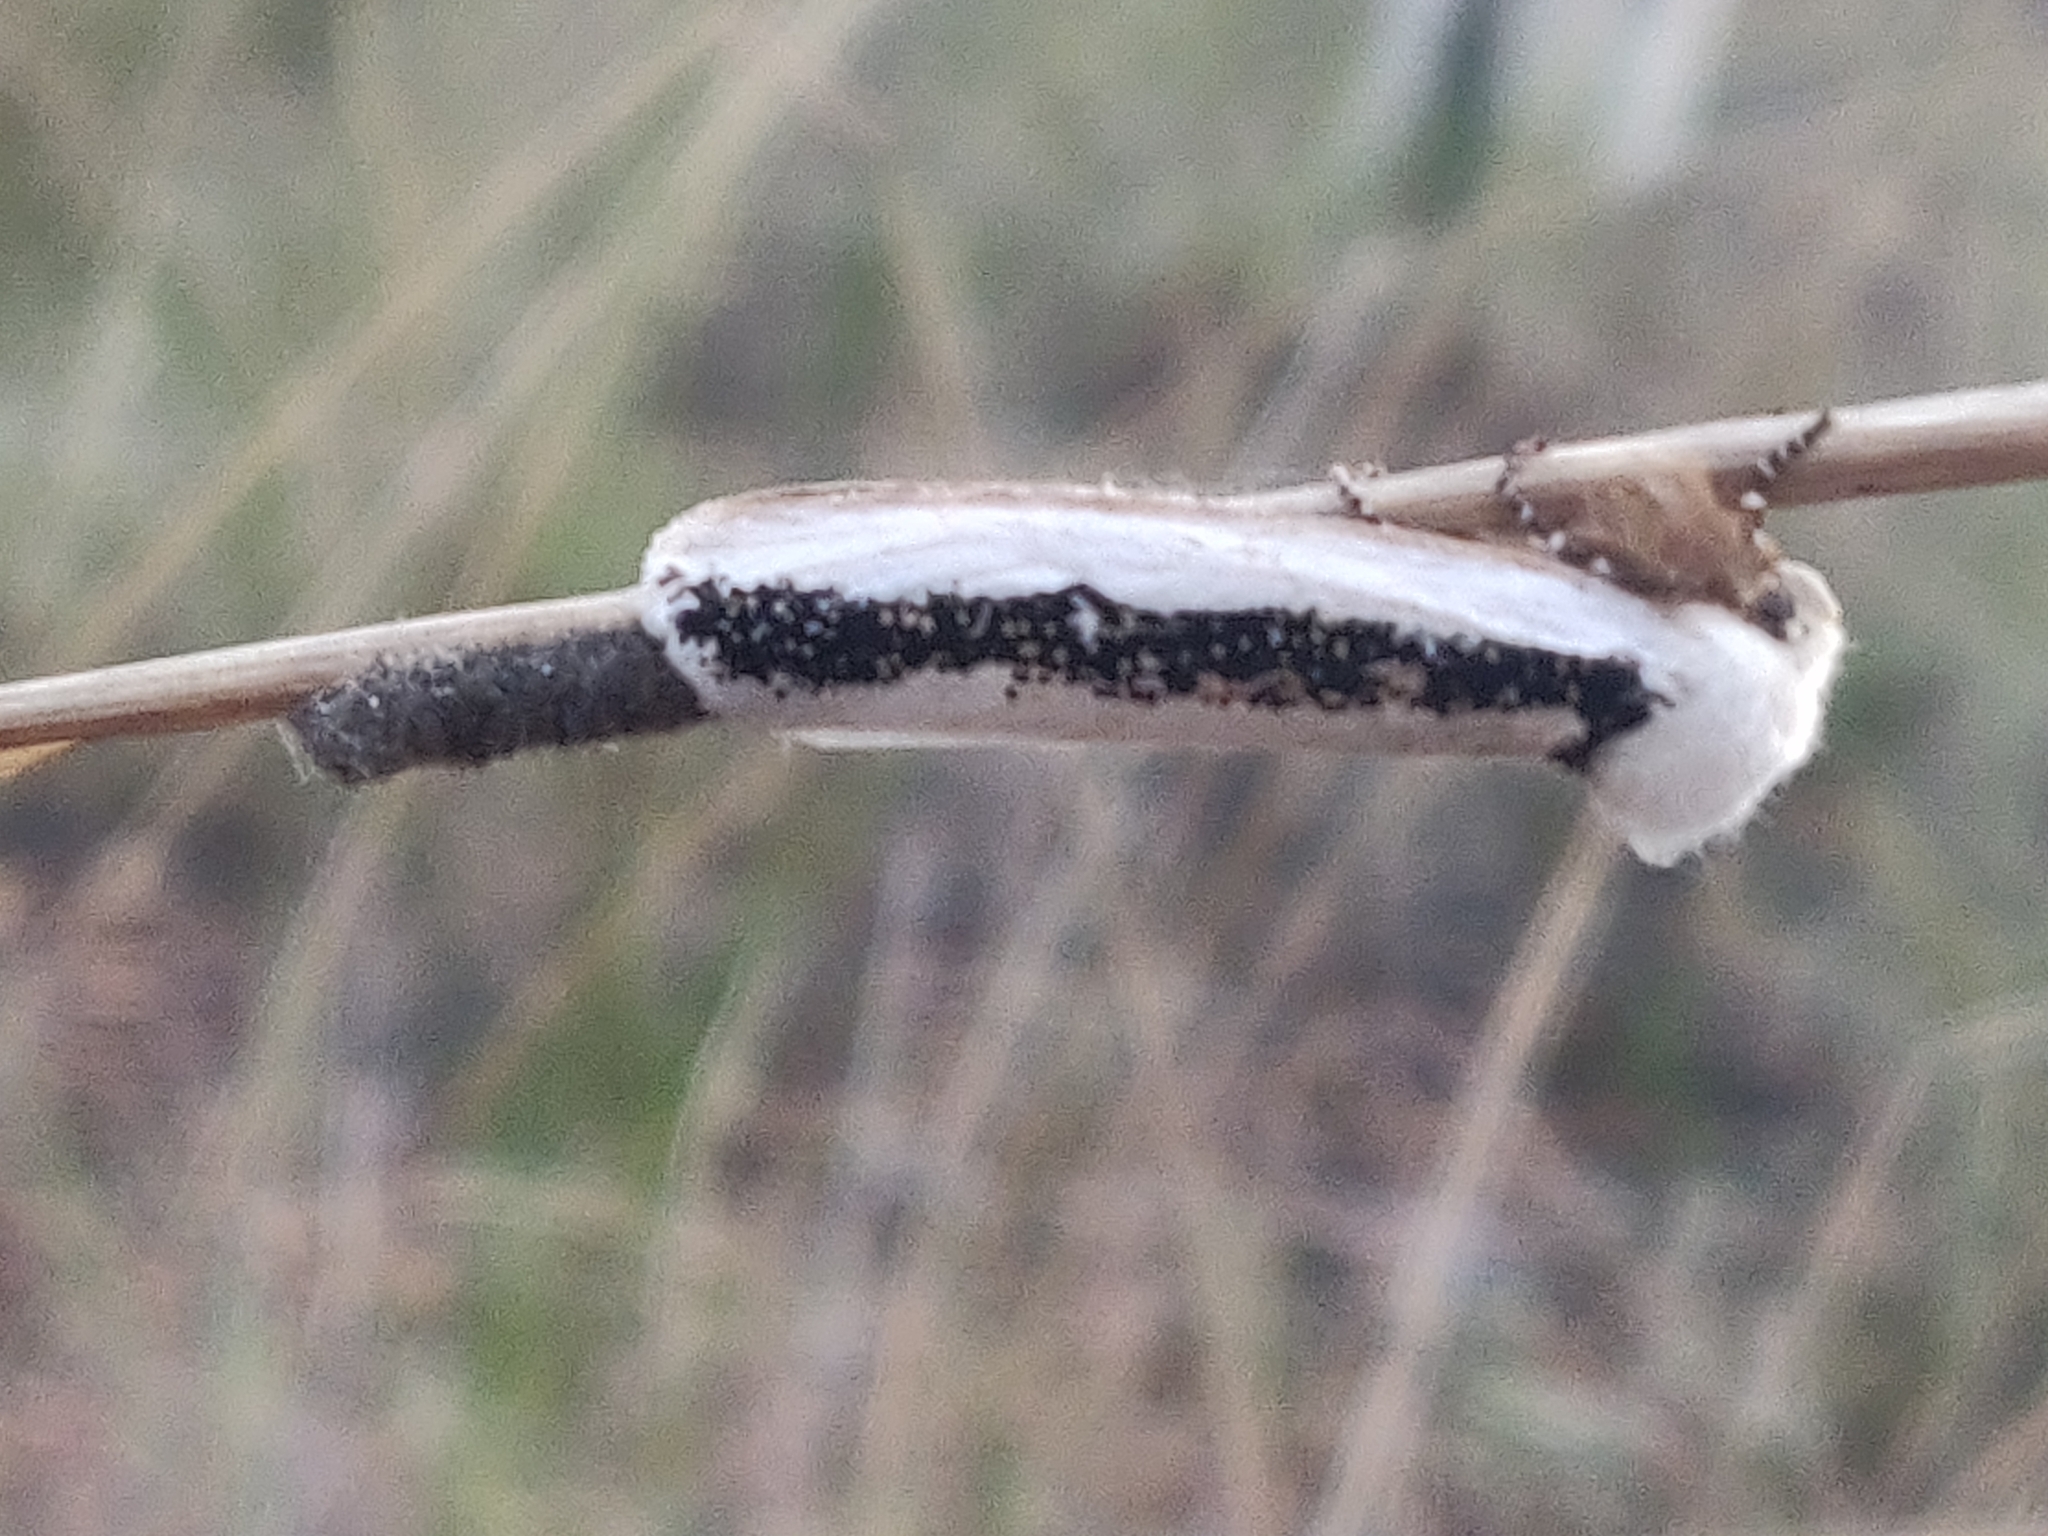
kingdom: Animalia
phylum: Arthropoda
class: Insecta
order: Lepidoptera
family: Oenosandridae
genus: Oenosandra
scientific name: Oenosandra boisduvalii
